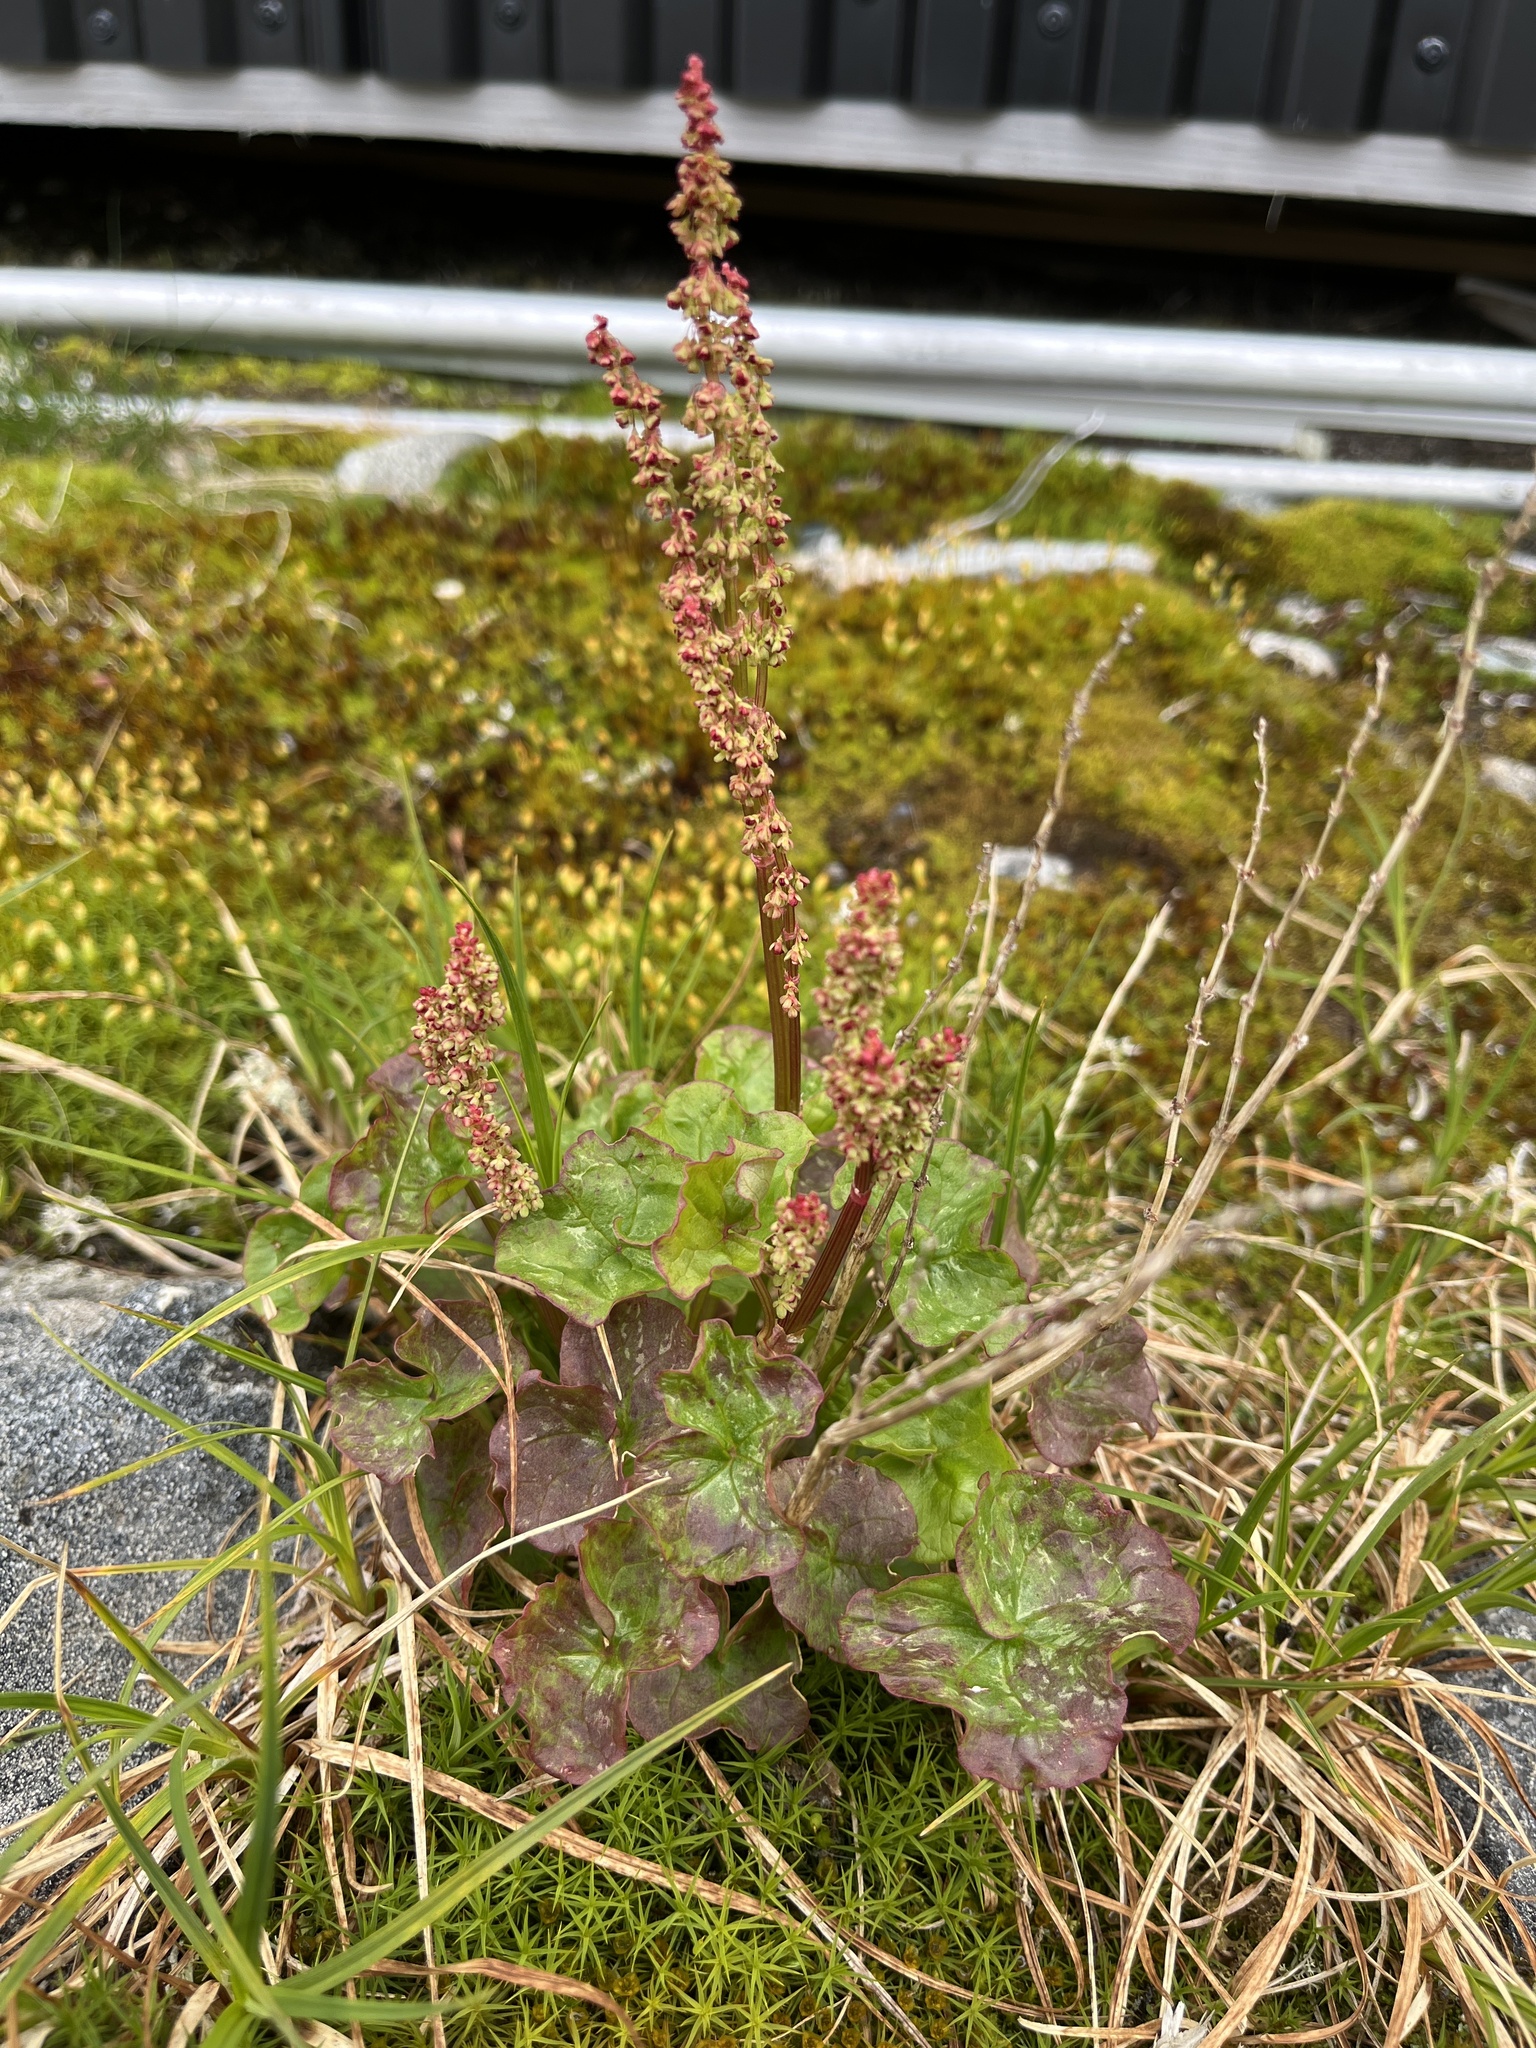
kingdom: Plantae
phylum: Tracheophyta
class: Magnoliopsida
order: Caryophyllales
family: Polygonaceae
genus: Oxyria
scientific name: Oxyria digyna
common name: Alpine mountain-sorrel
